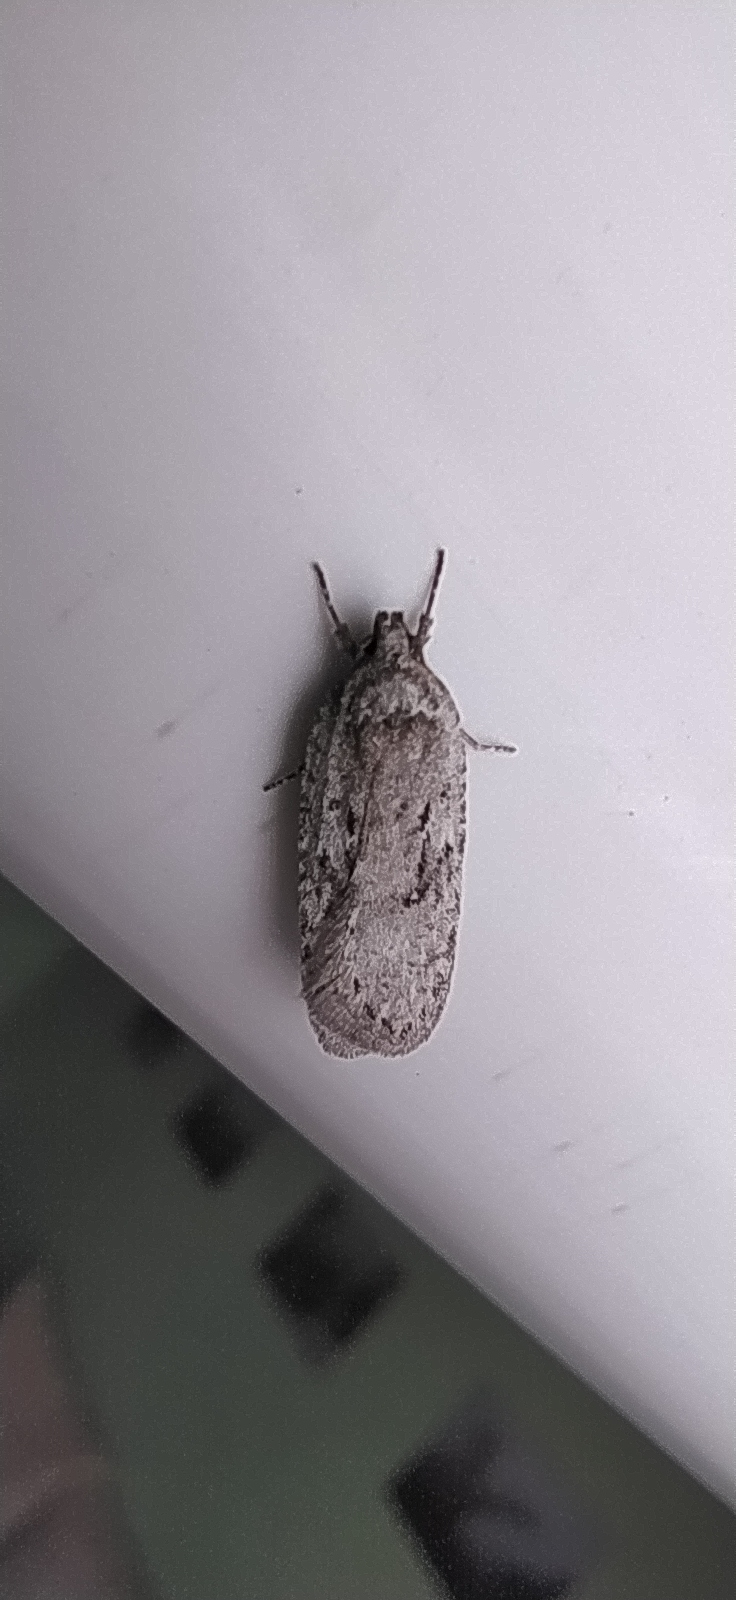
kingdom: Animalia
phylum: Arthropoda
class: Insecta
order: Lepidoptera
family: Depressariidae
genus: Exaeretia
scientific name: Exaeretia ciniflonella
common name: Scotch flat-body
